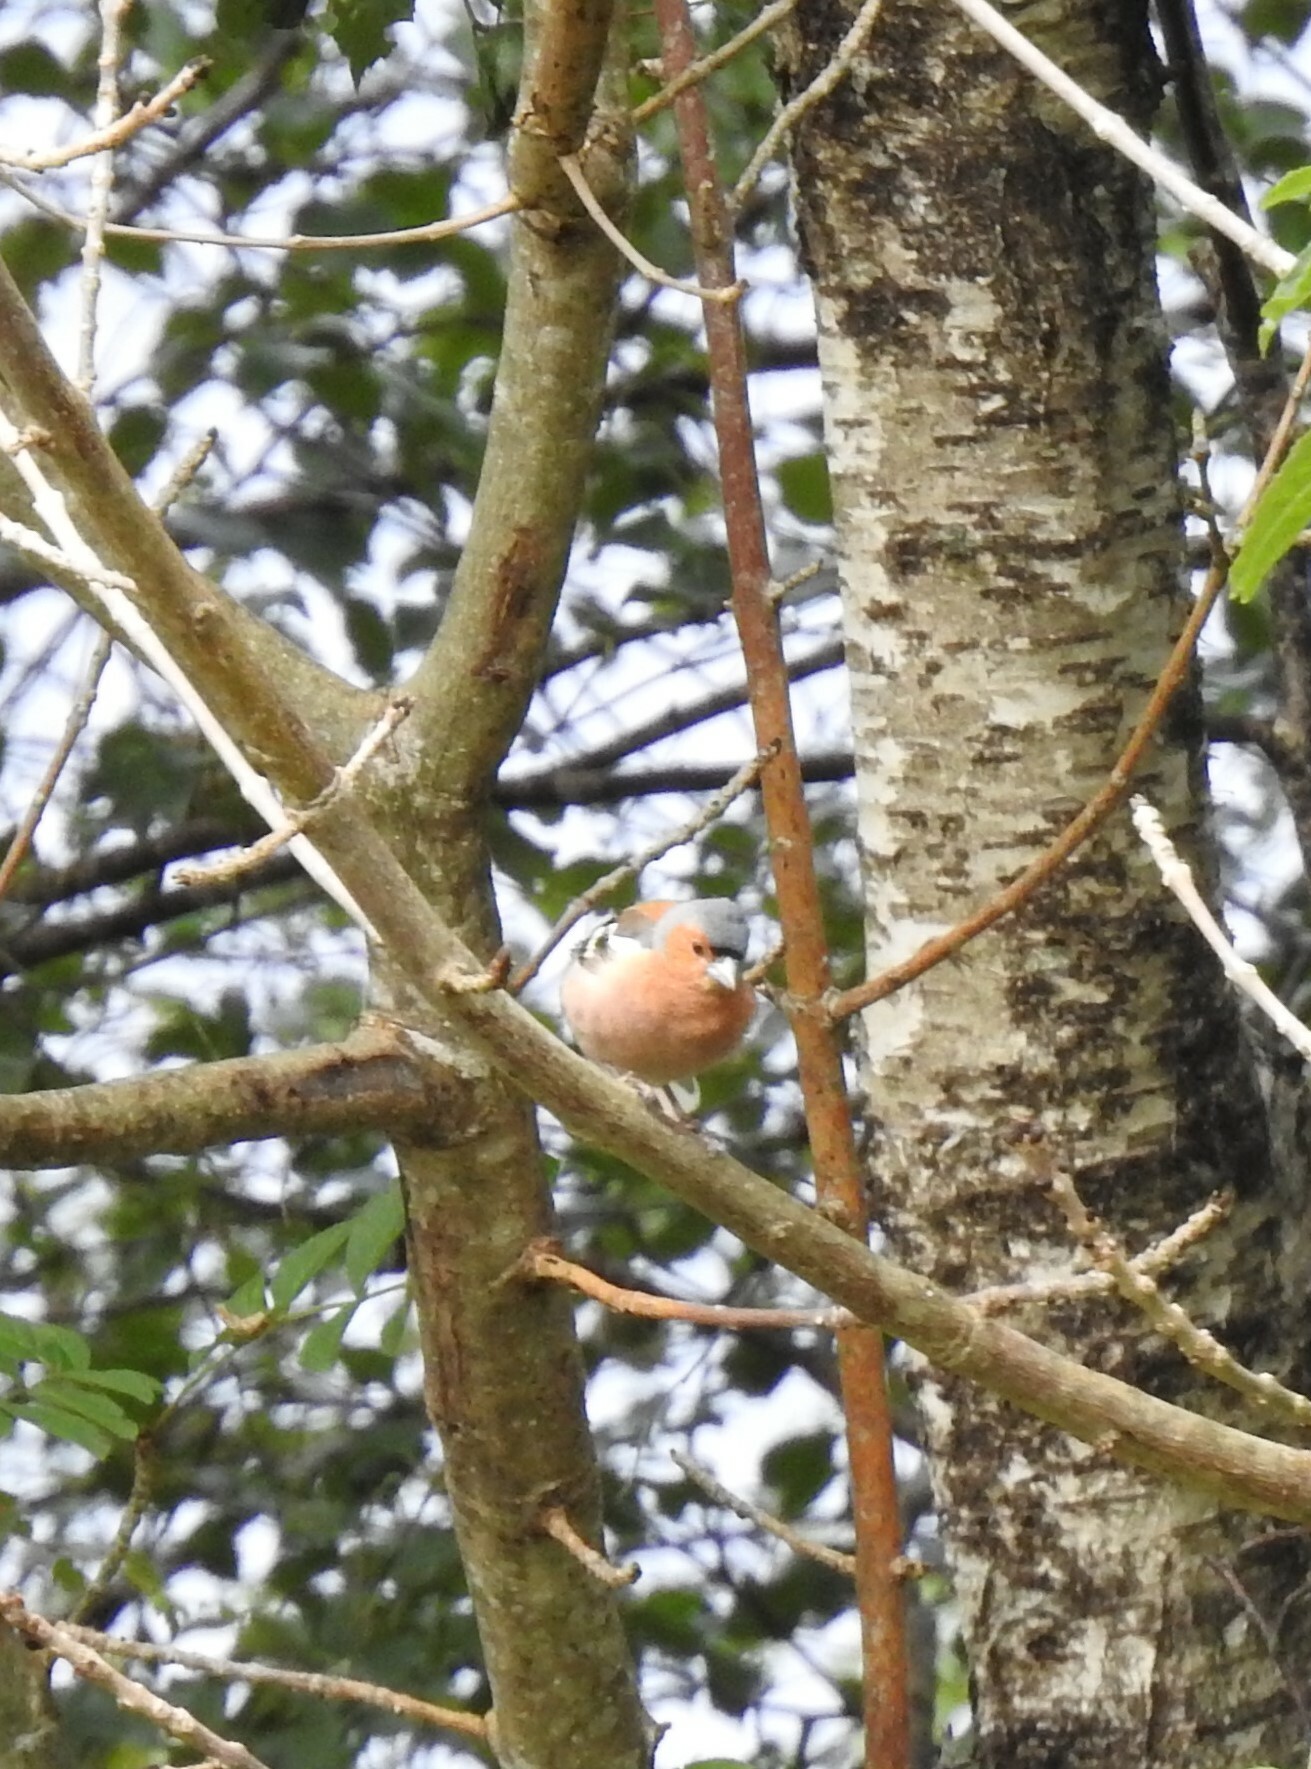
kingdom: Animalia
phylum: Chordata
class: Aves
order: Passeriformes
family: Fringillidae
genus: Fringilla
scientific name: Fringilla coelebs
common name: Common chaffinch
